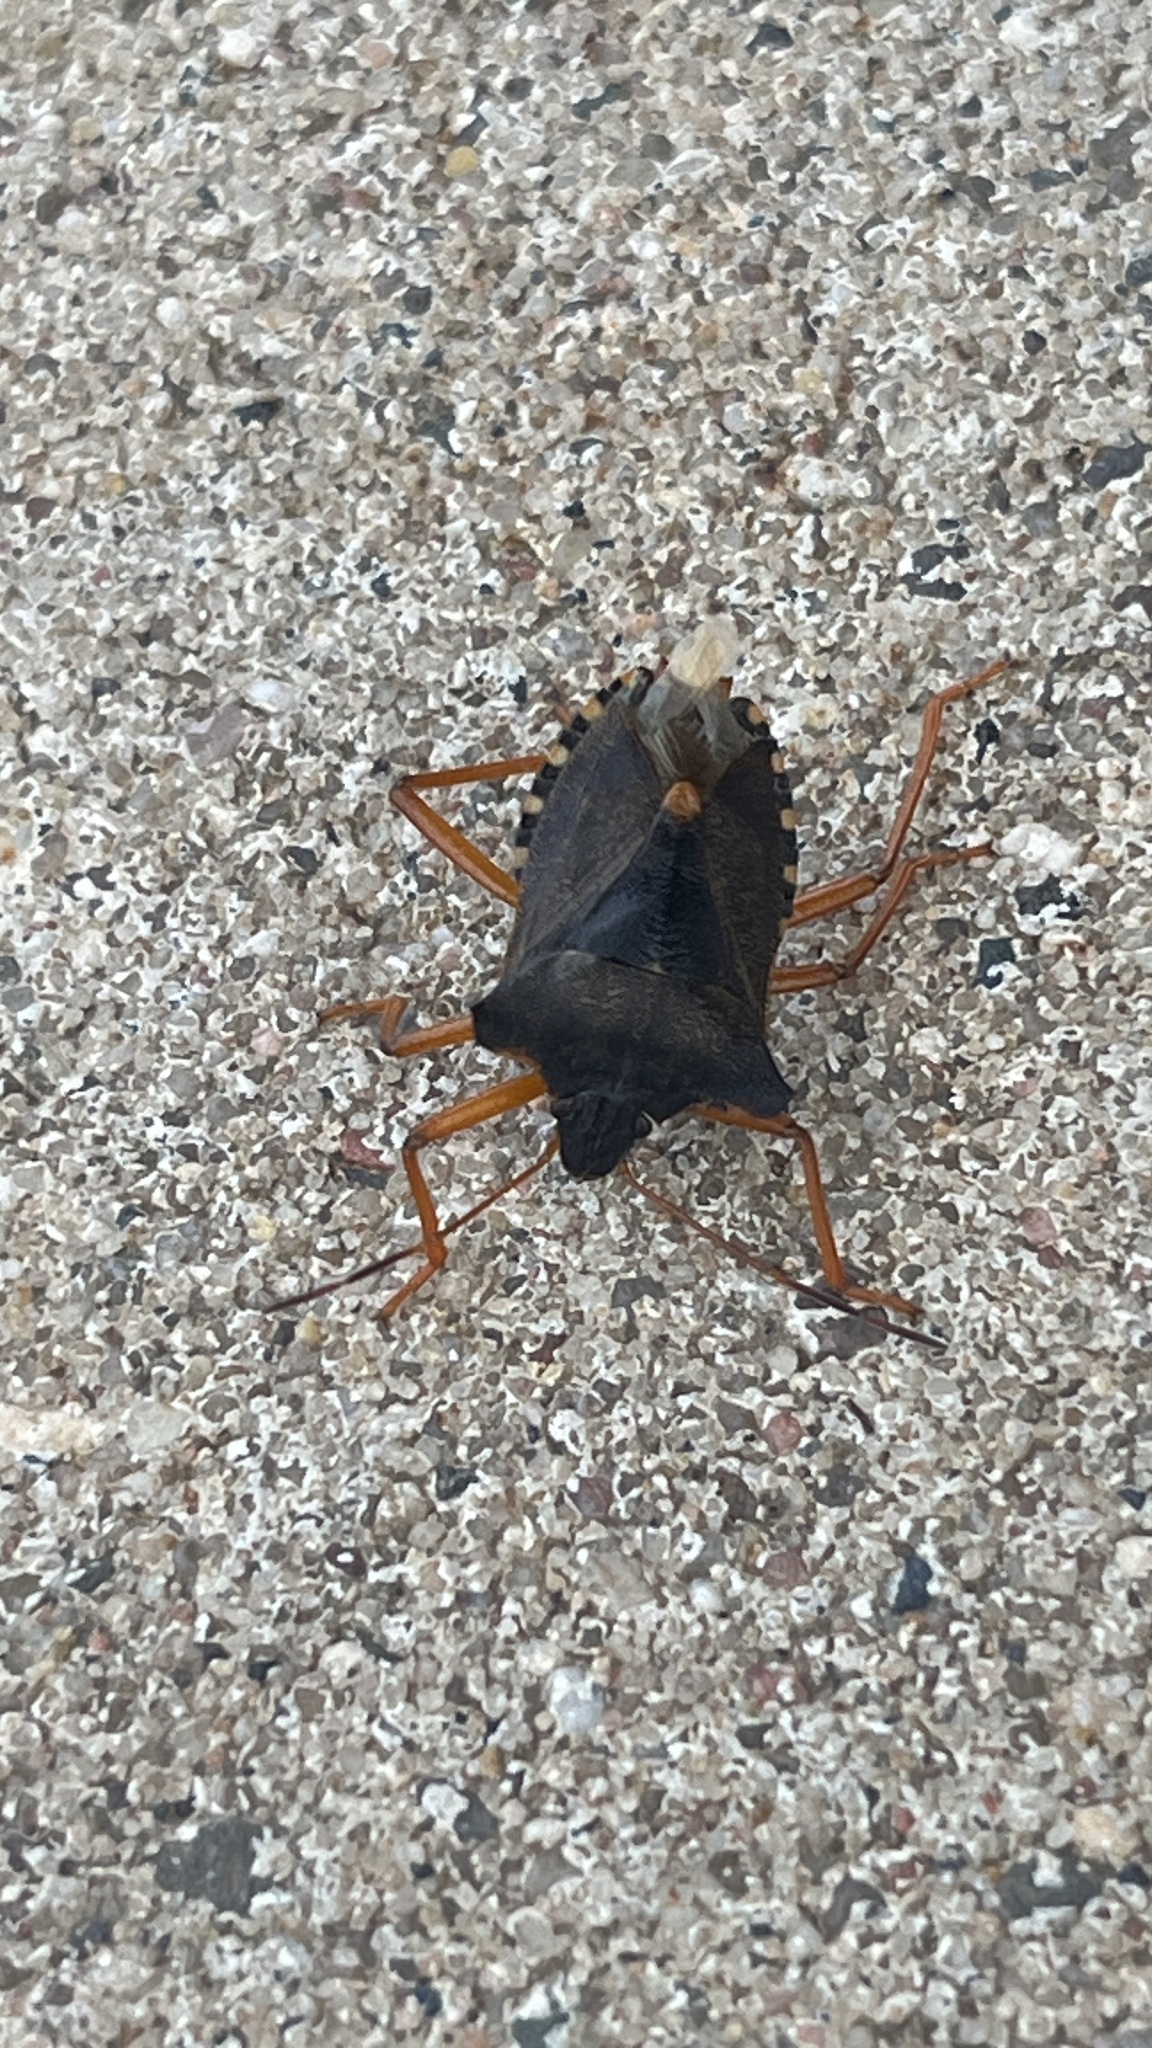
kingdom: Animalia
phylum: Arthropoda
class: Insecta
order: Hemiptera
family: Pentatomidae
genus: Pentatoma
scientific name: Pentatoma rufipes
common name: Forest bug
